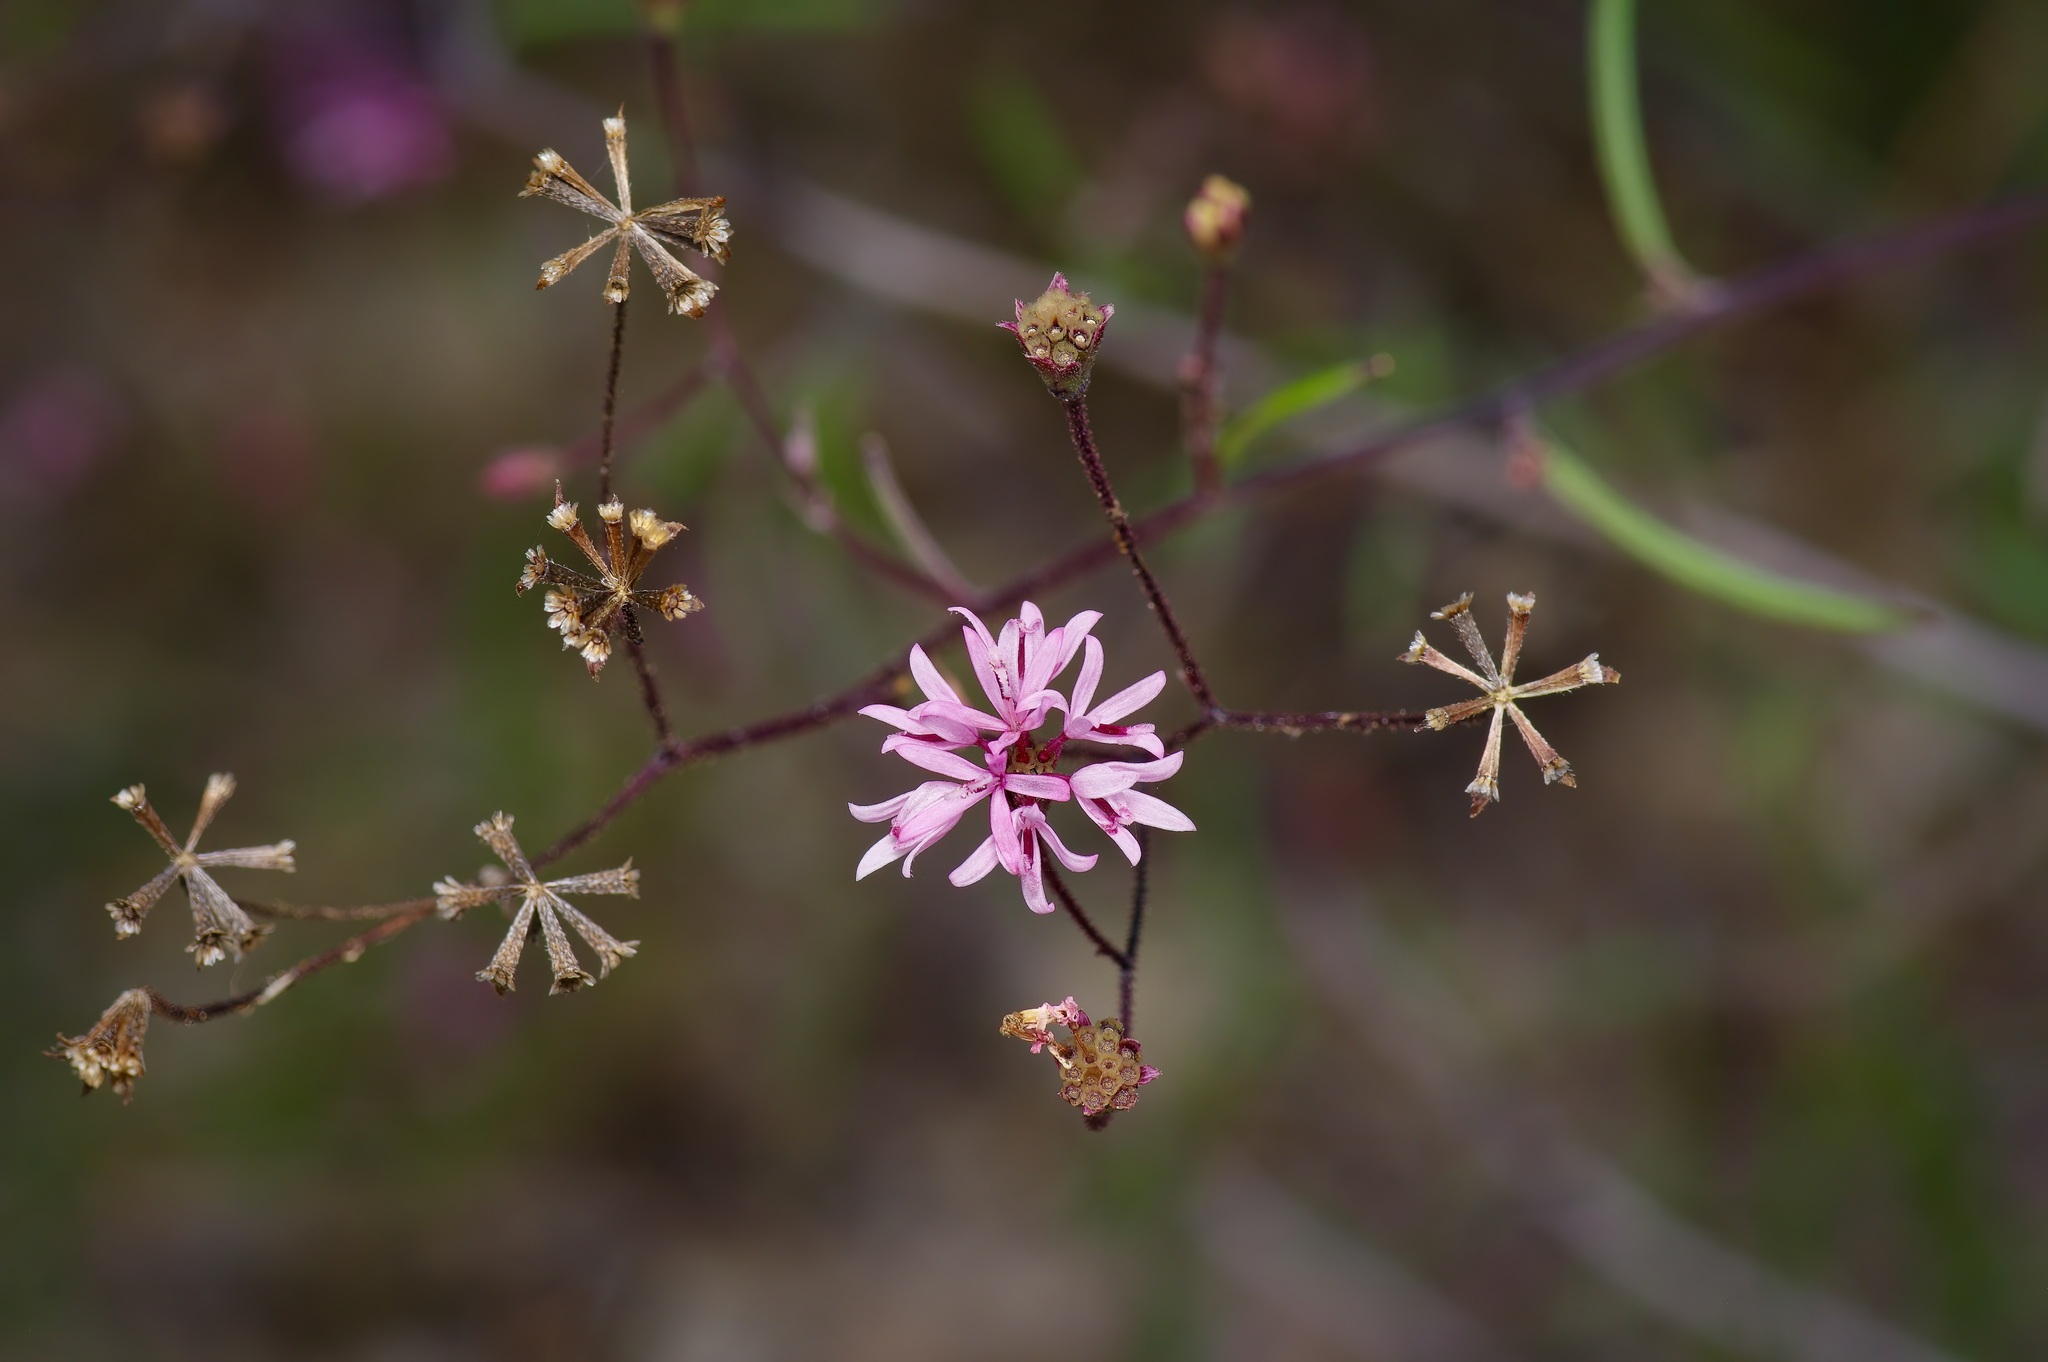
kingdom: Plantae
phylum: Tracheophyta
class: Magnoliopsida
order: Asterales
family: Asteraceae
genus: Palafoxia
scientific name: Palafoxia callosa
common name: Small palafox
